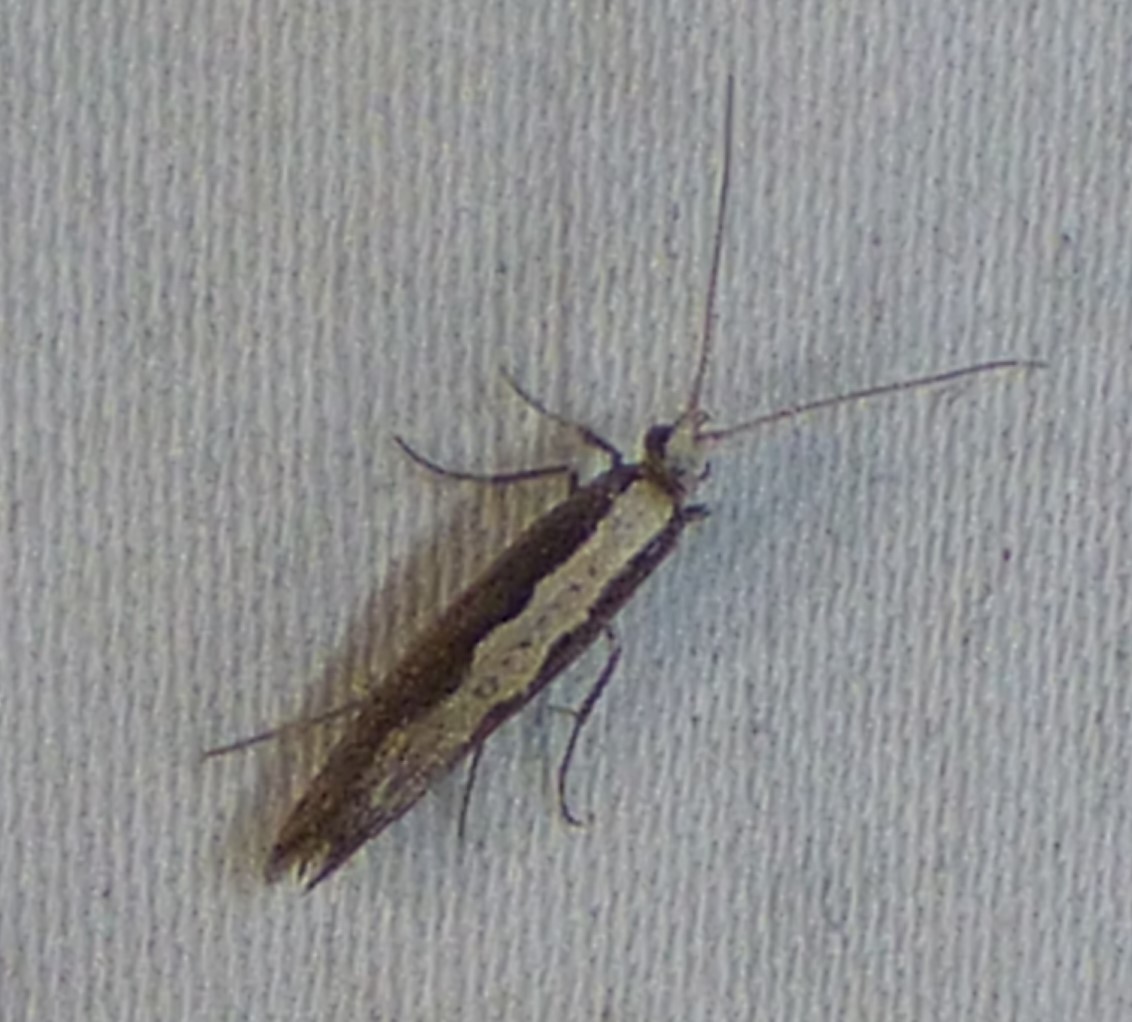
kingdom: Animalia
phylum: Arthropoda
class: Insecta
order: Lepidoptera
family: Plutellidae
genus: Plutella
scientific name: Plutella xylostella
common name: Diamond-back moth
